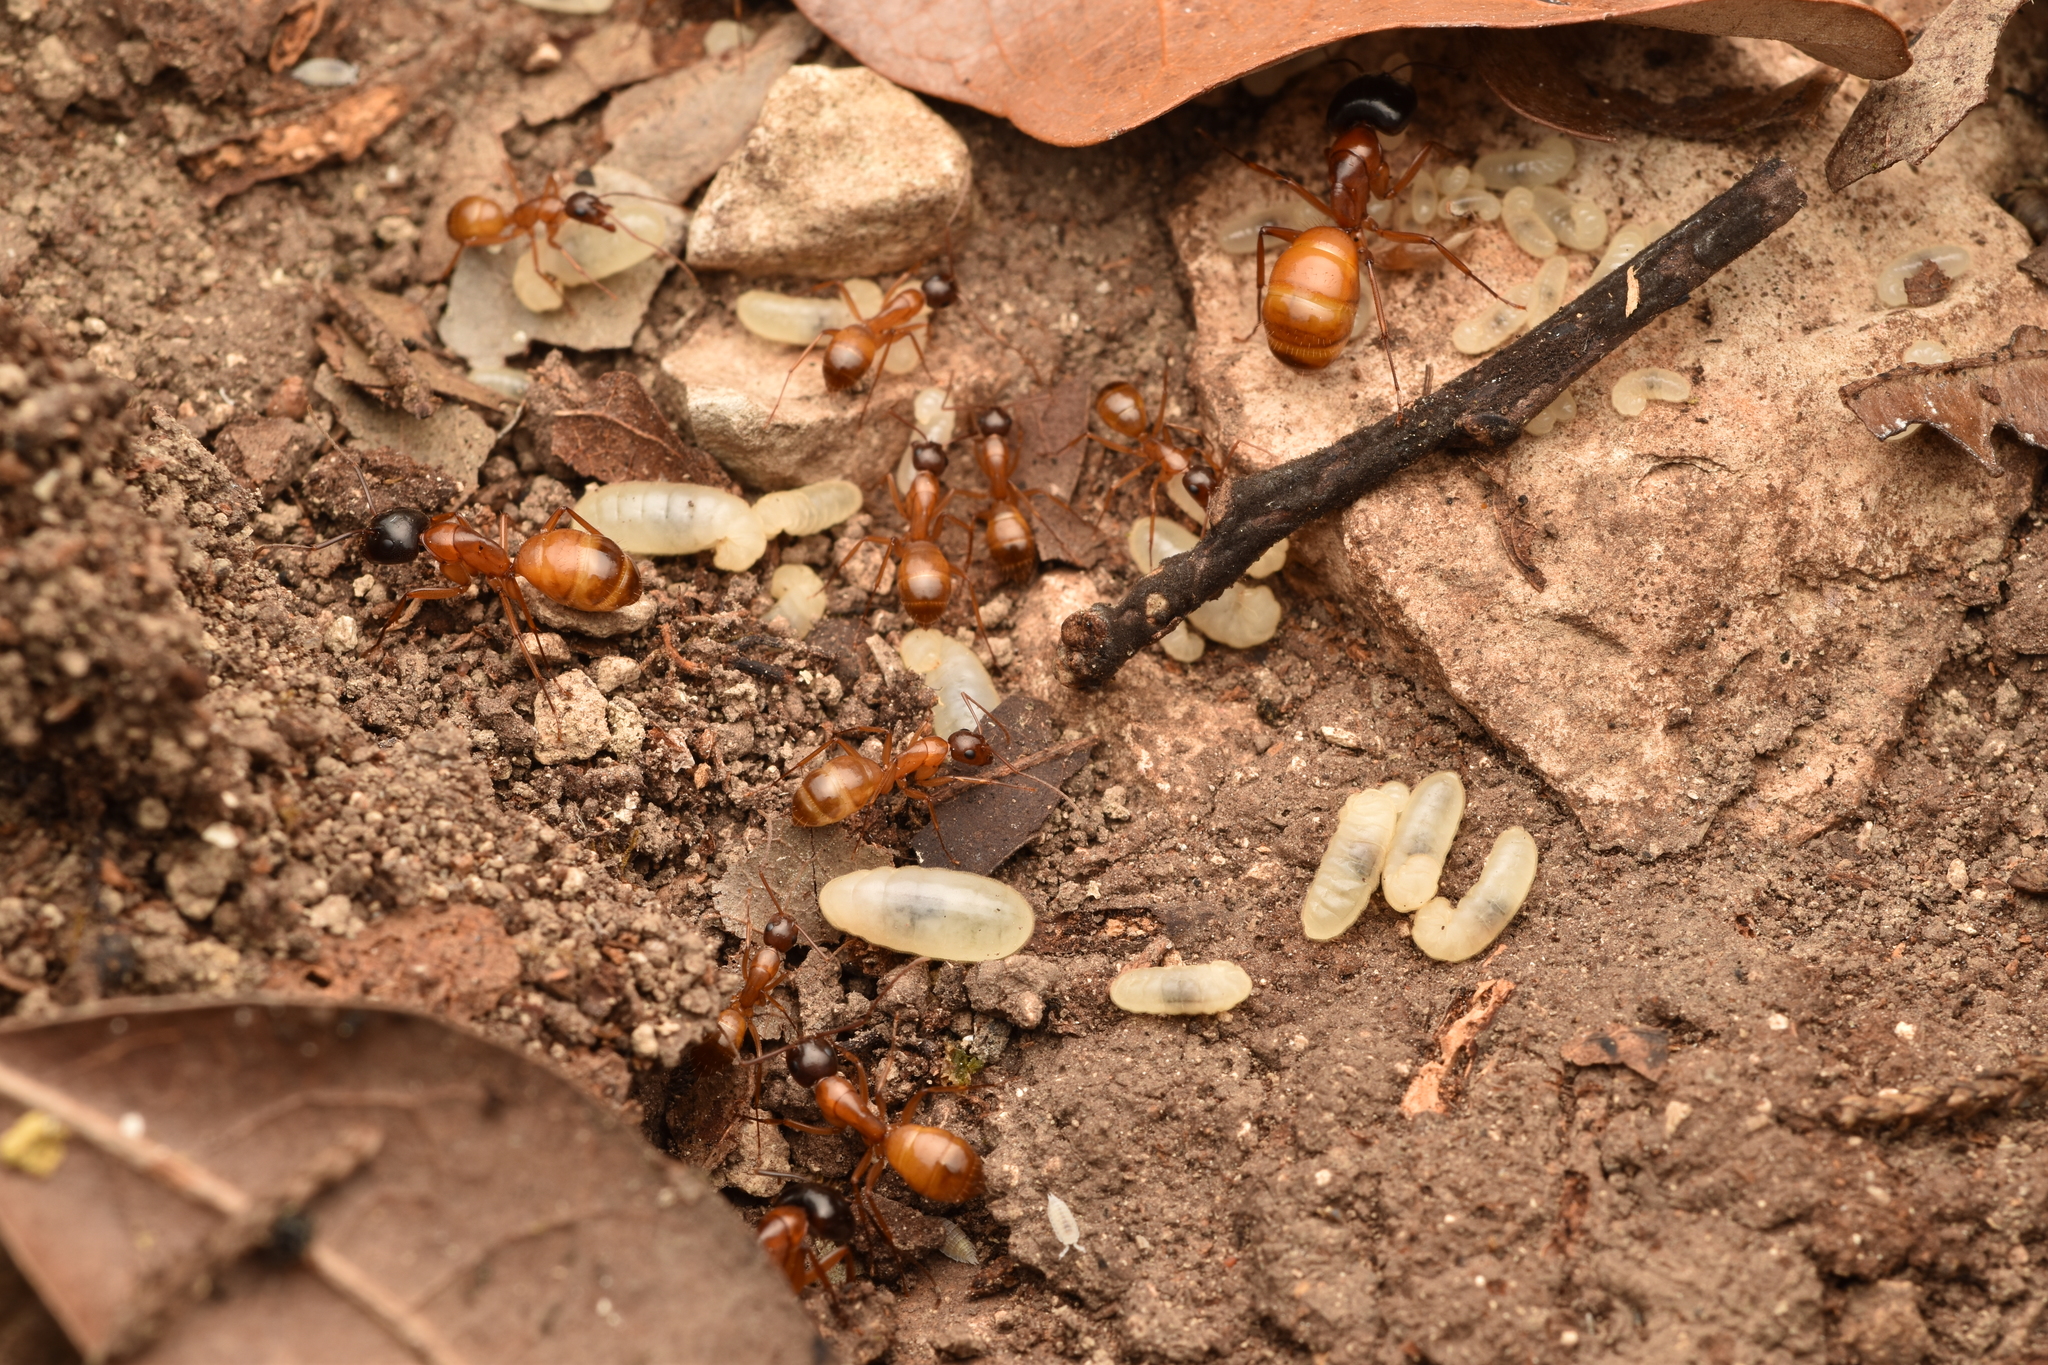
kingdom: Animalia
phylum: Arthropoda
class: Insecta
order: Hymenoptera
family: Formicidae
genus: Camponotus
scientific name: Camponotus sansabeanus
